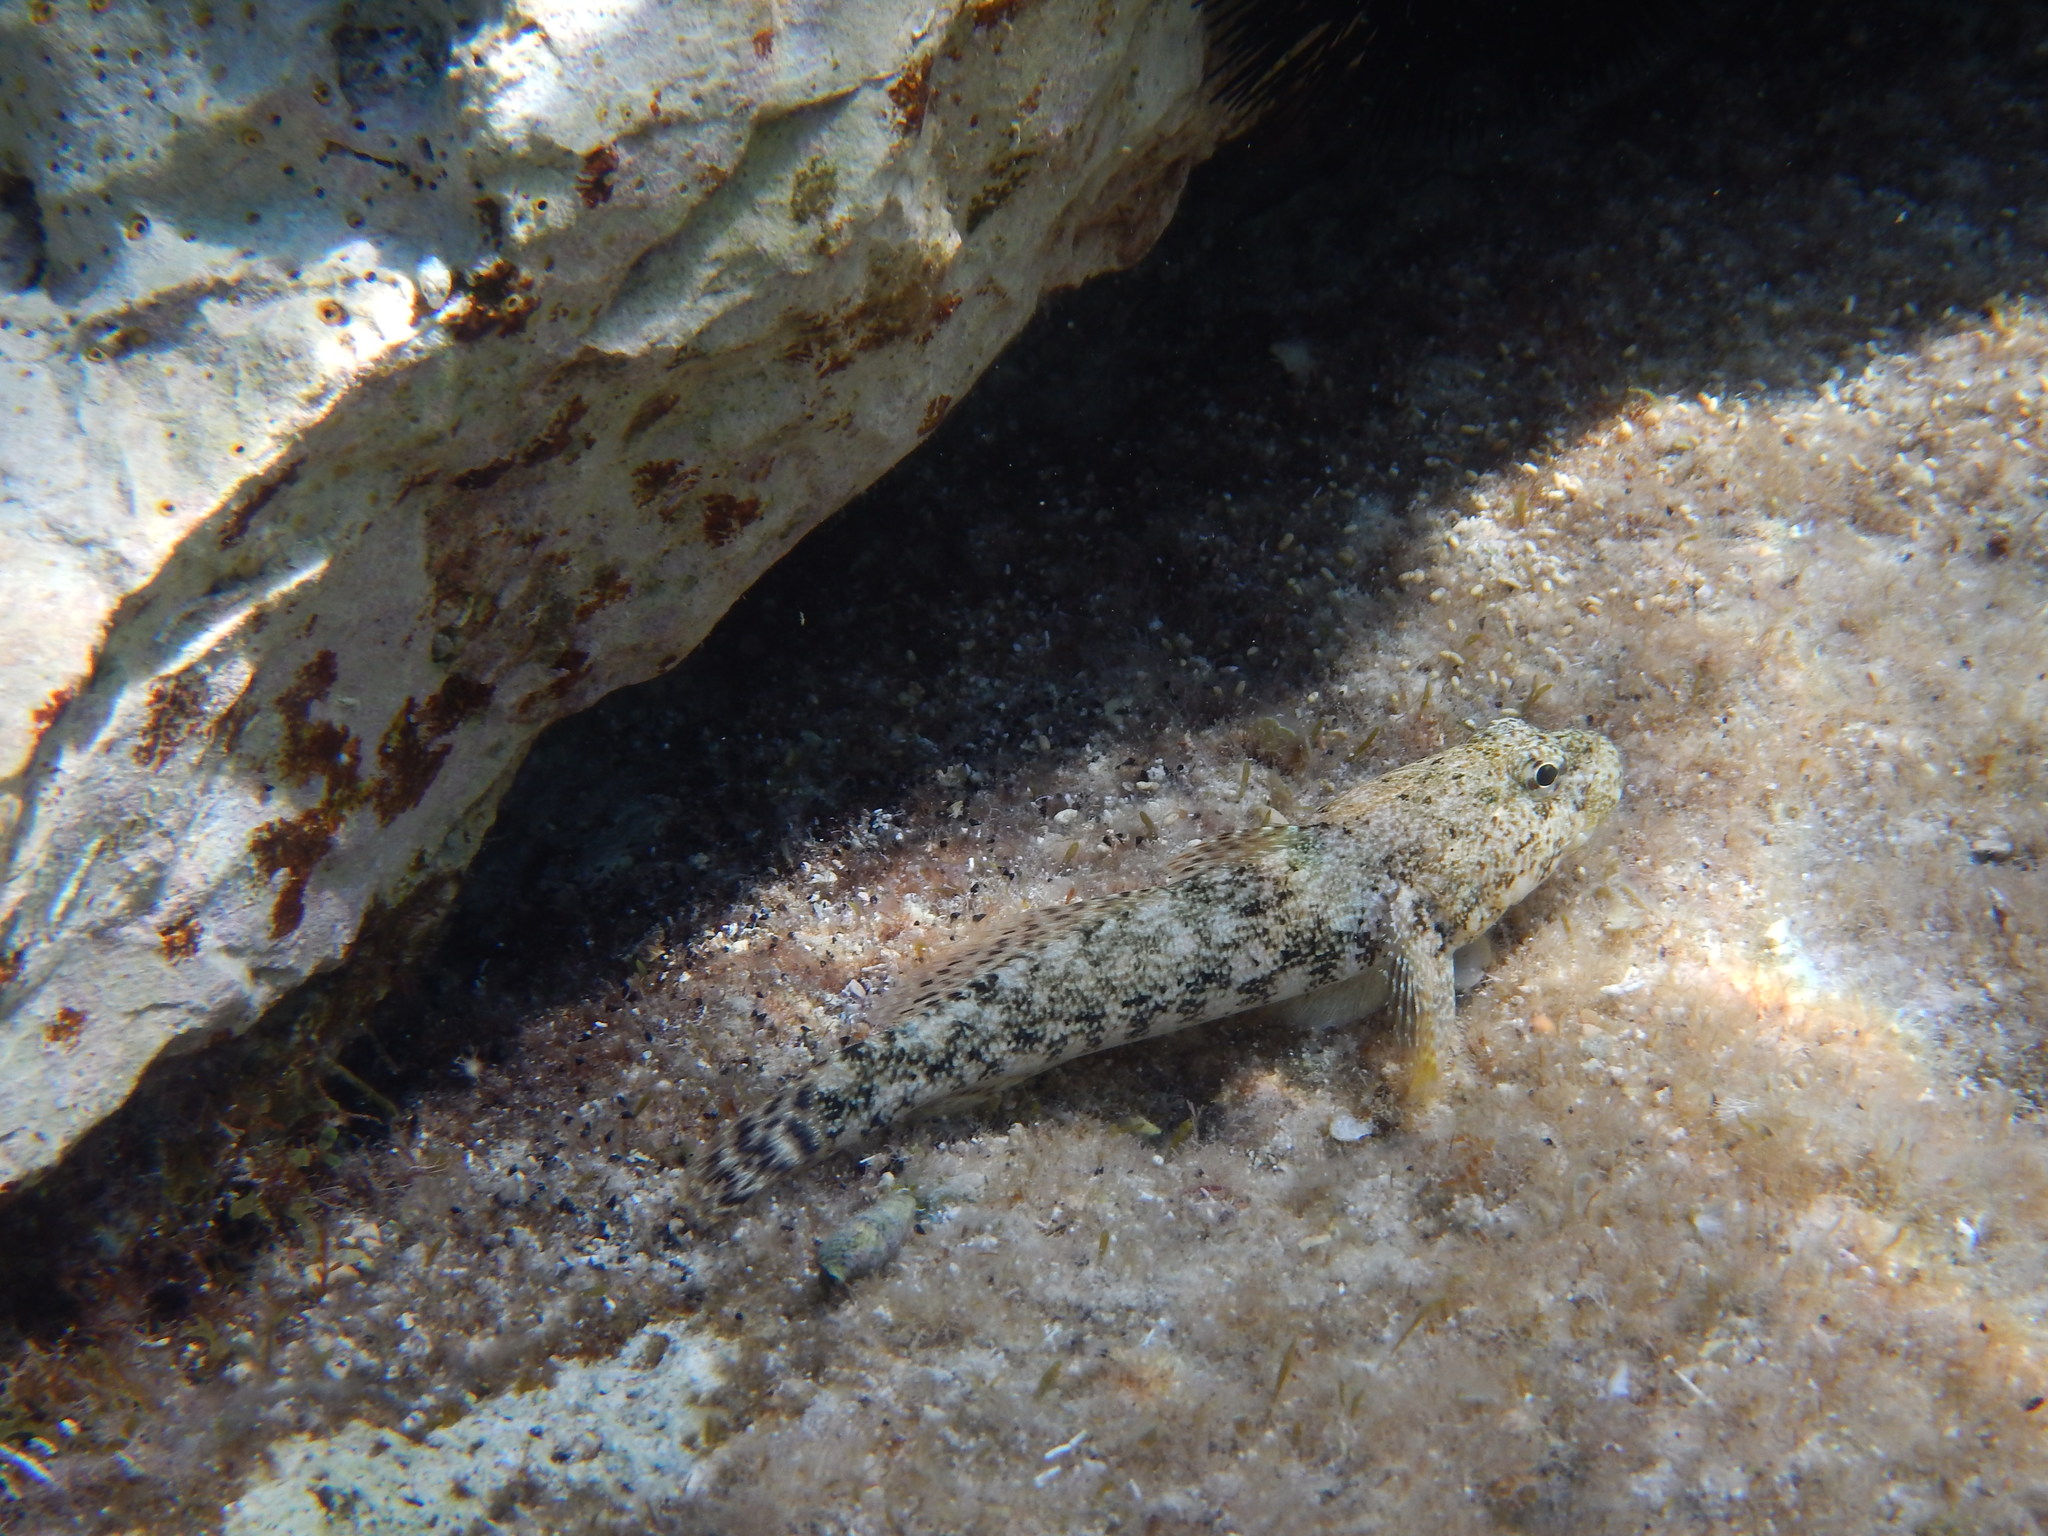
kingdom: Animalia
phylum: Chordata
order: Perciformes
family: Gobiidae
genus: Gobius
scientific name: Gobius cobitis
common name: Giant goby
